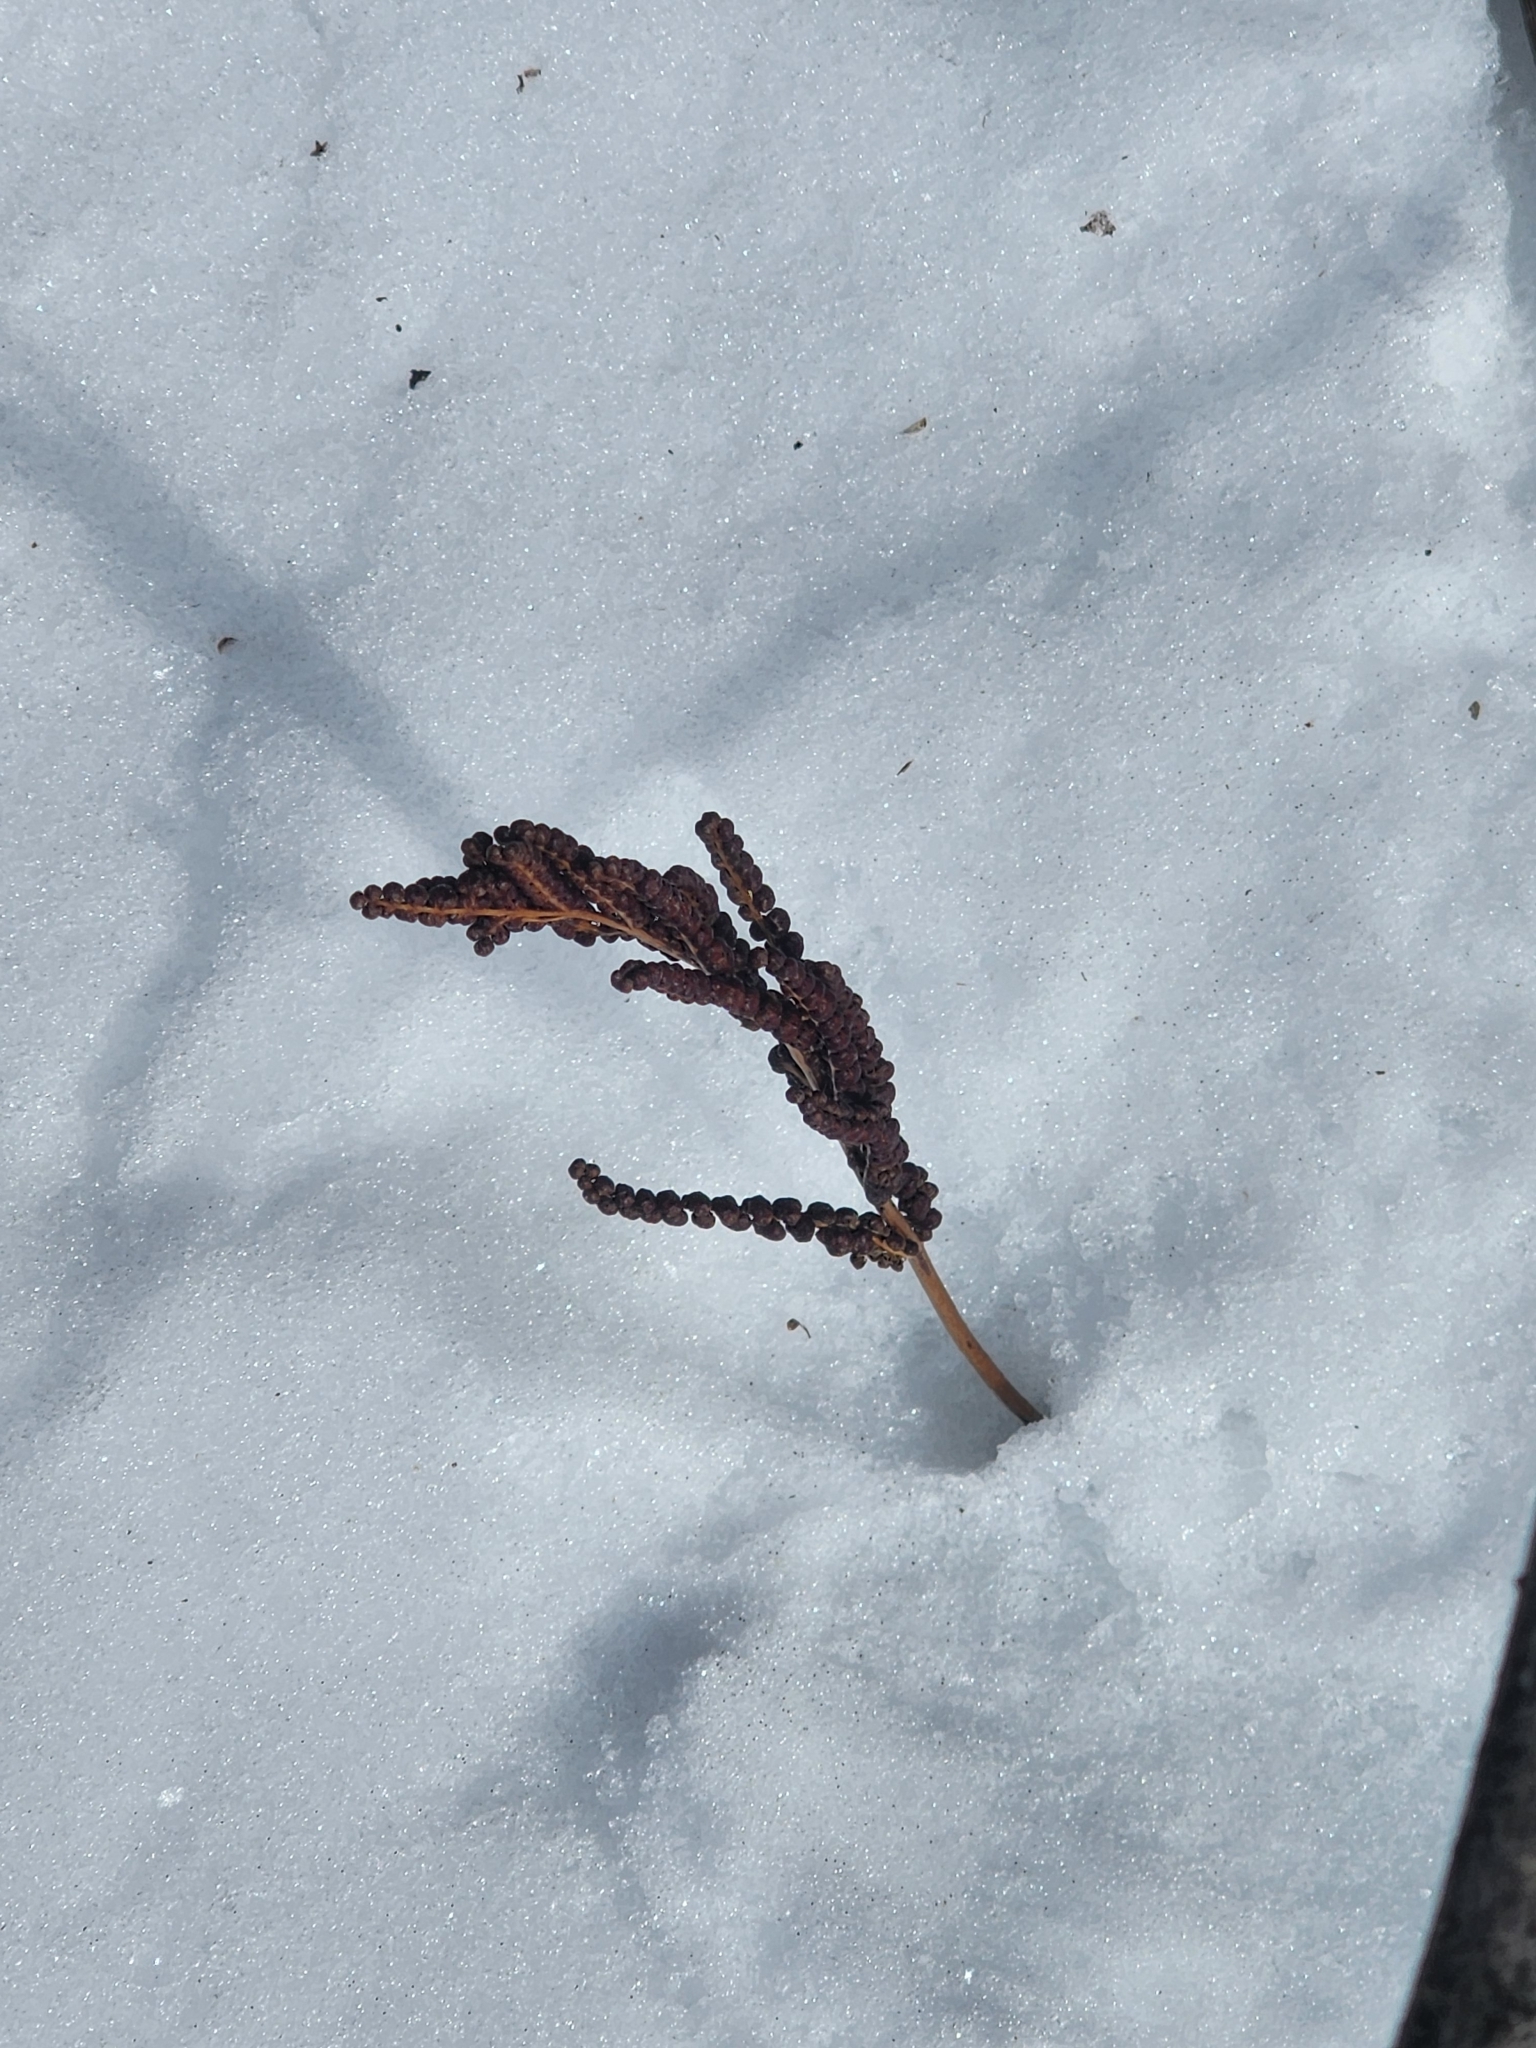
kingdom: Plantae
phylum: Tracheophyta
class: Polypodiopsida
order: Polypodiales
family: Onocleaceae
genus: Onoclea
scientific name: Onoclea sensibilis
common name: Sensitive fern
